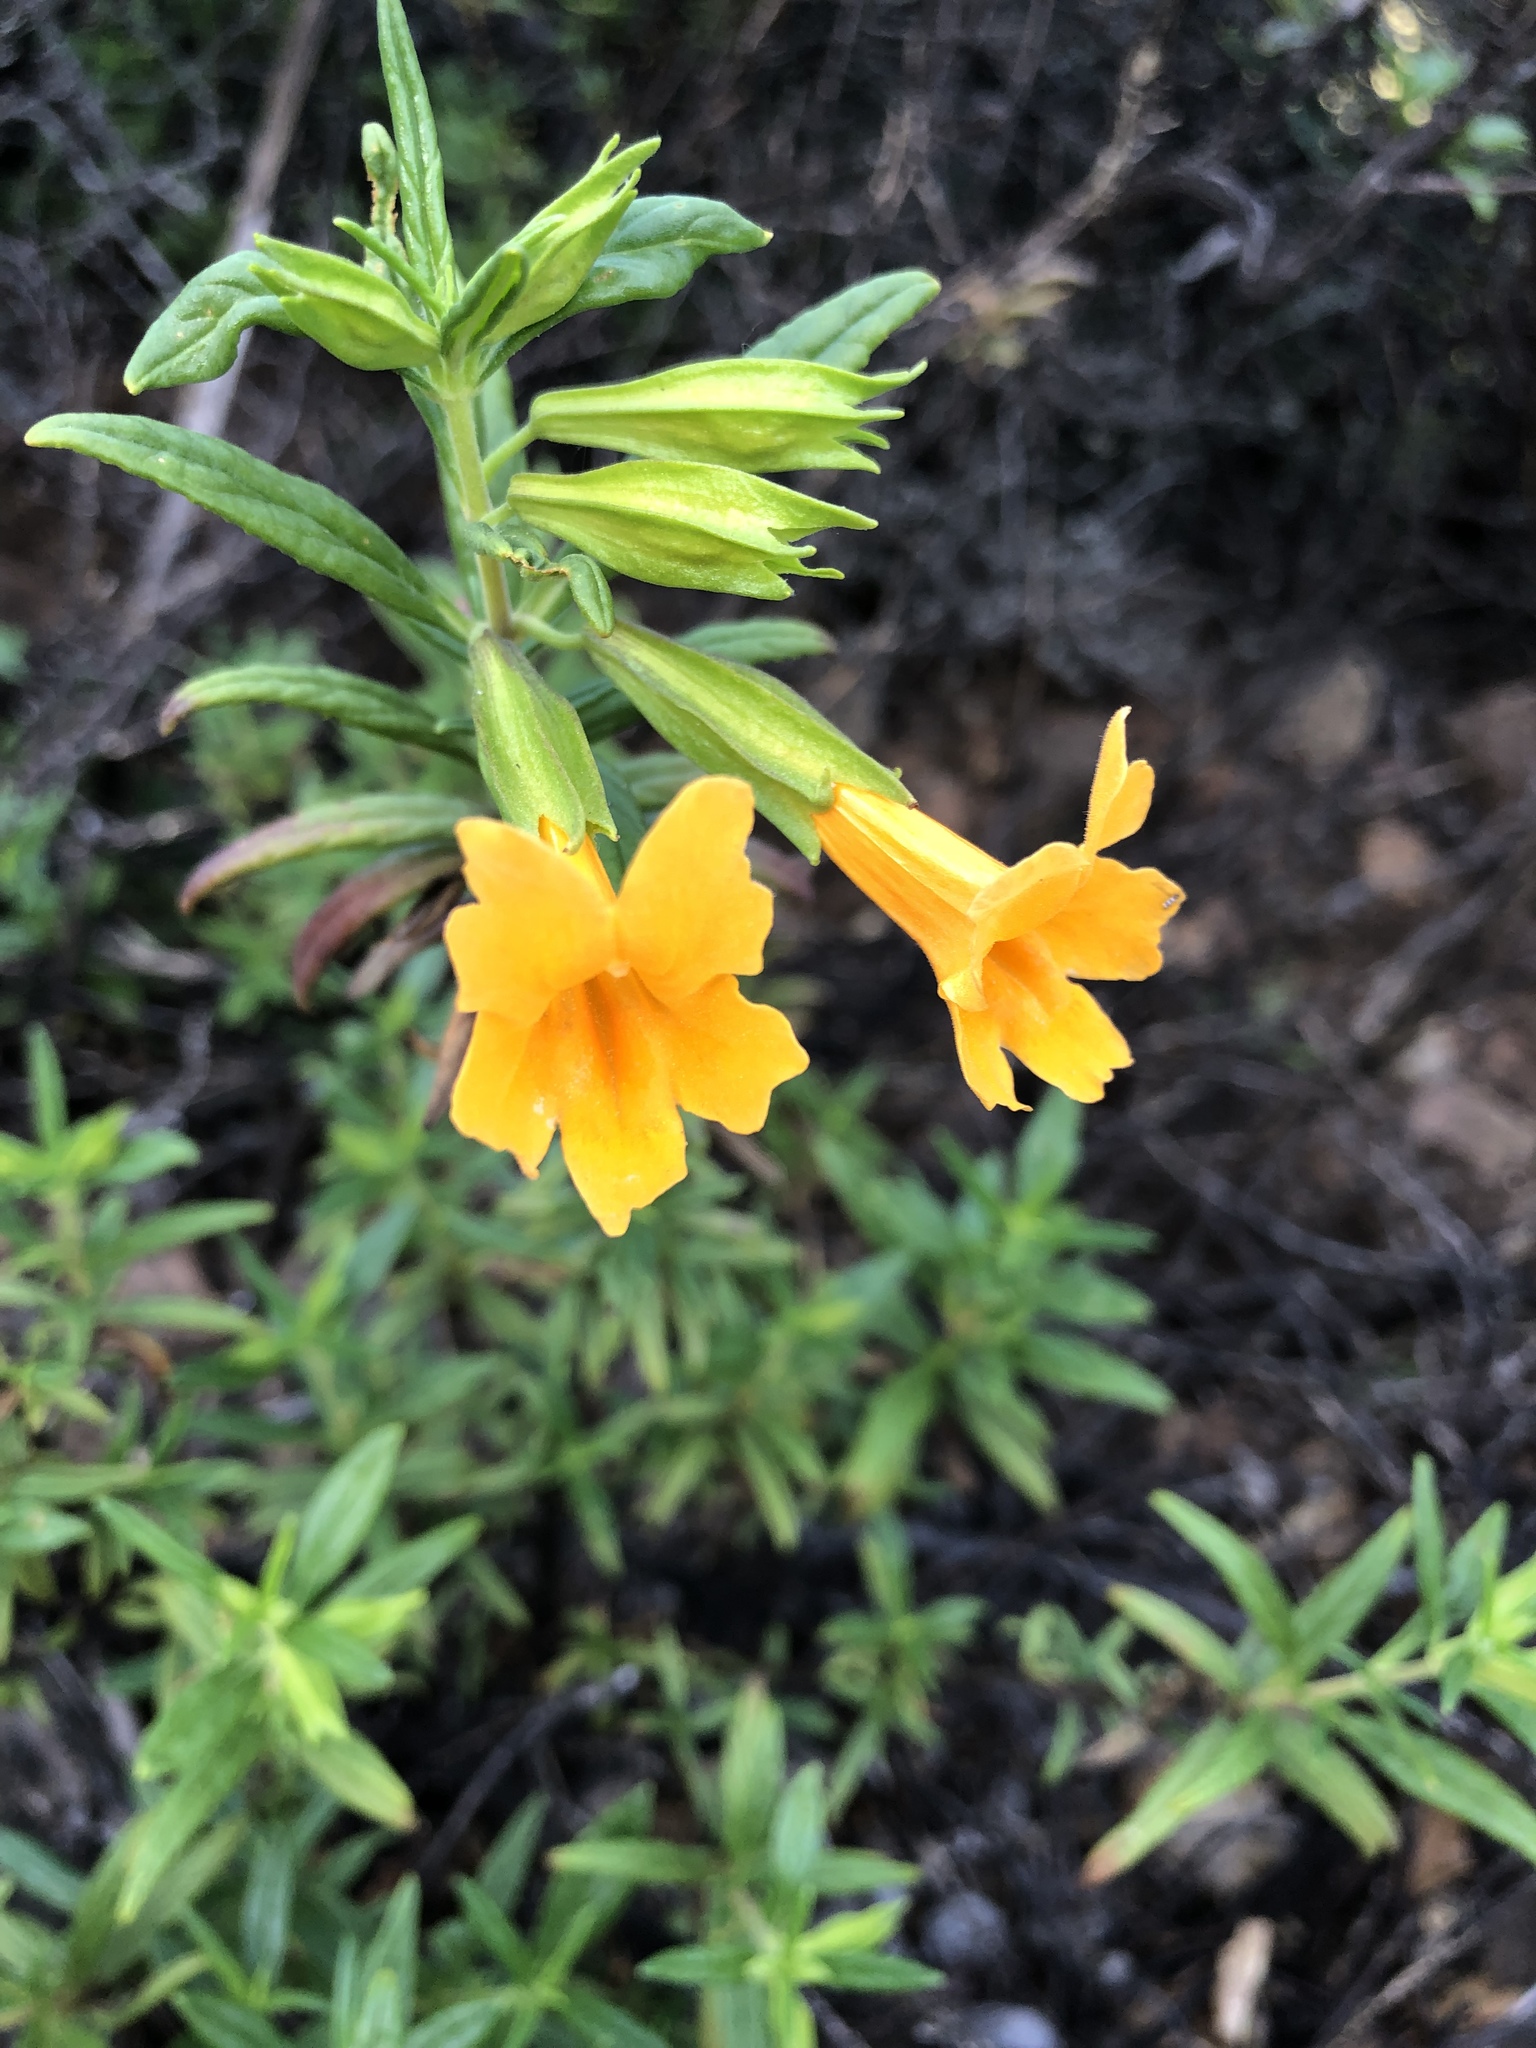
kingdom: Plantae
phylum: Tracheophyta
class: Magnoliopsida
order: Lamiales
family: Phrymaceae
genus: Diplacus
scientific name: Diplacus aurantiacus
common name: Bush monkey-flower
